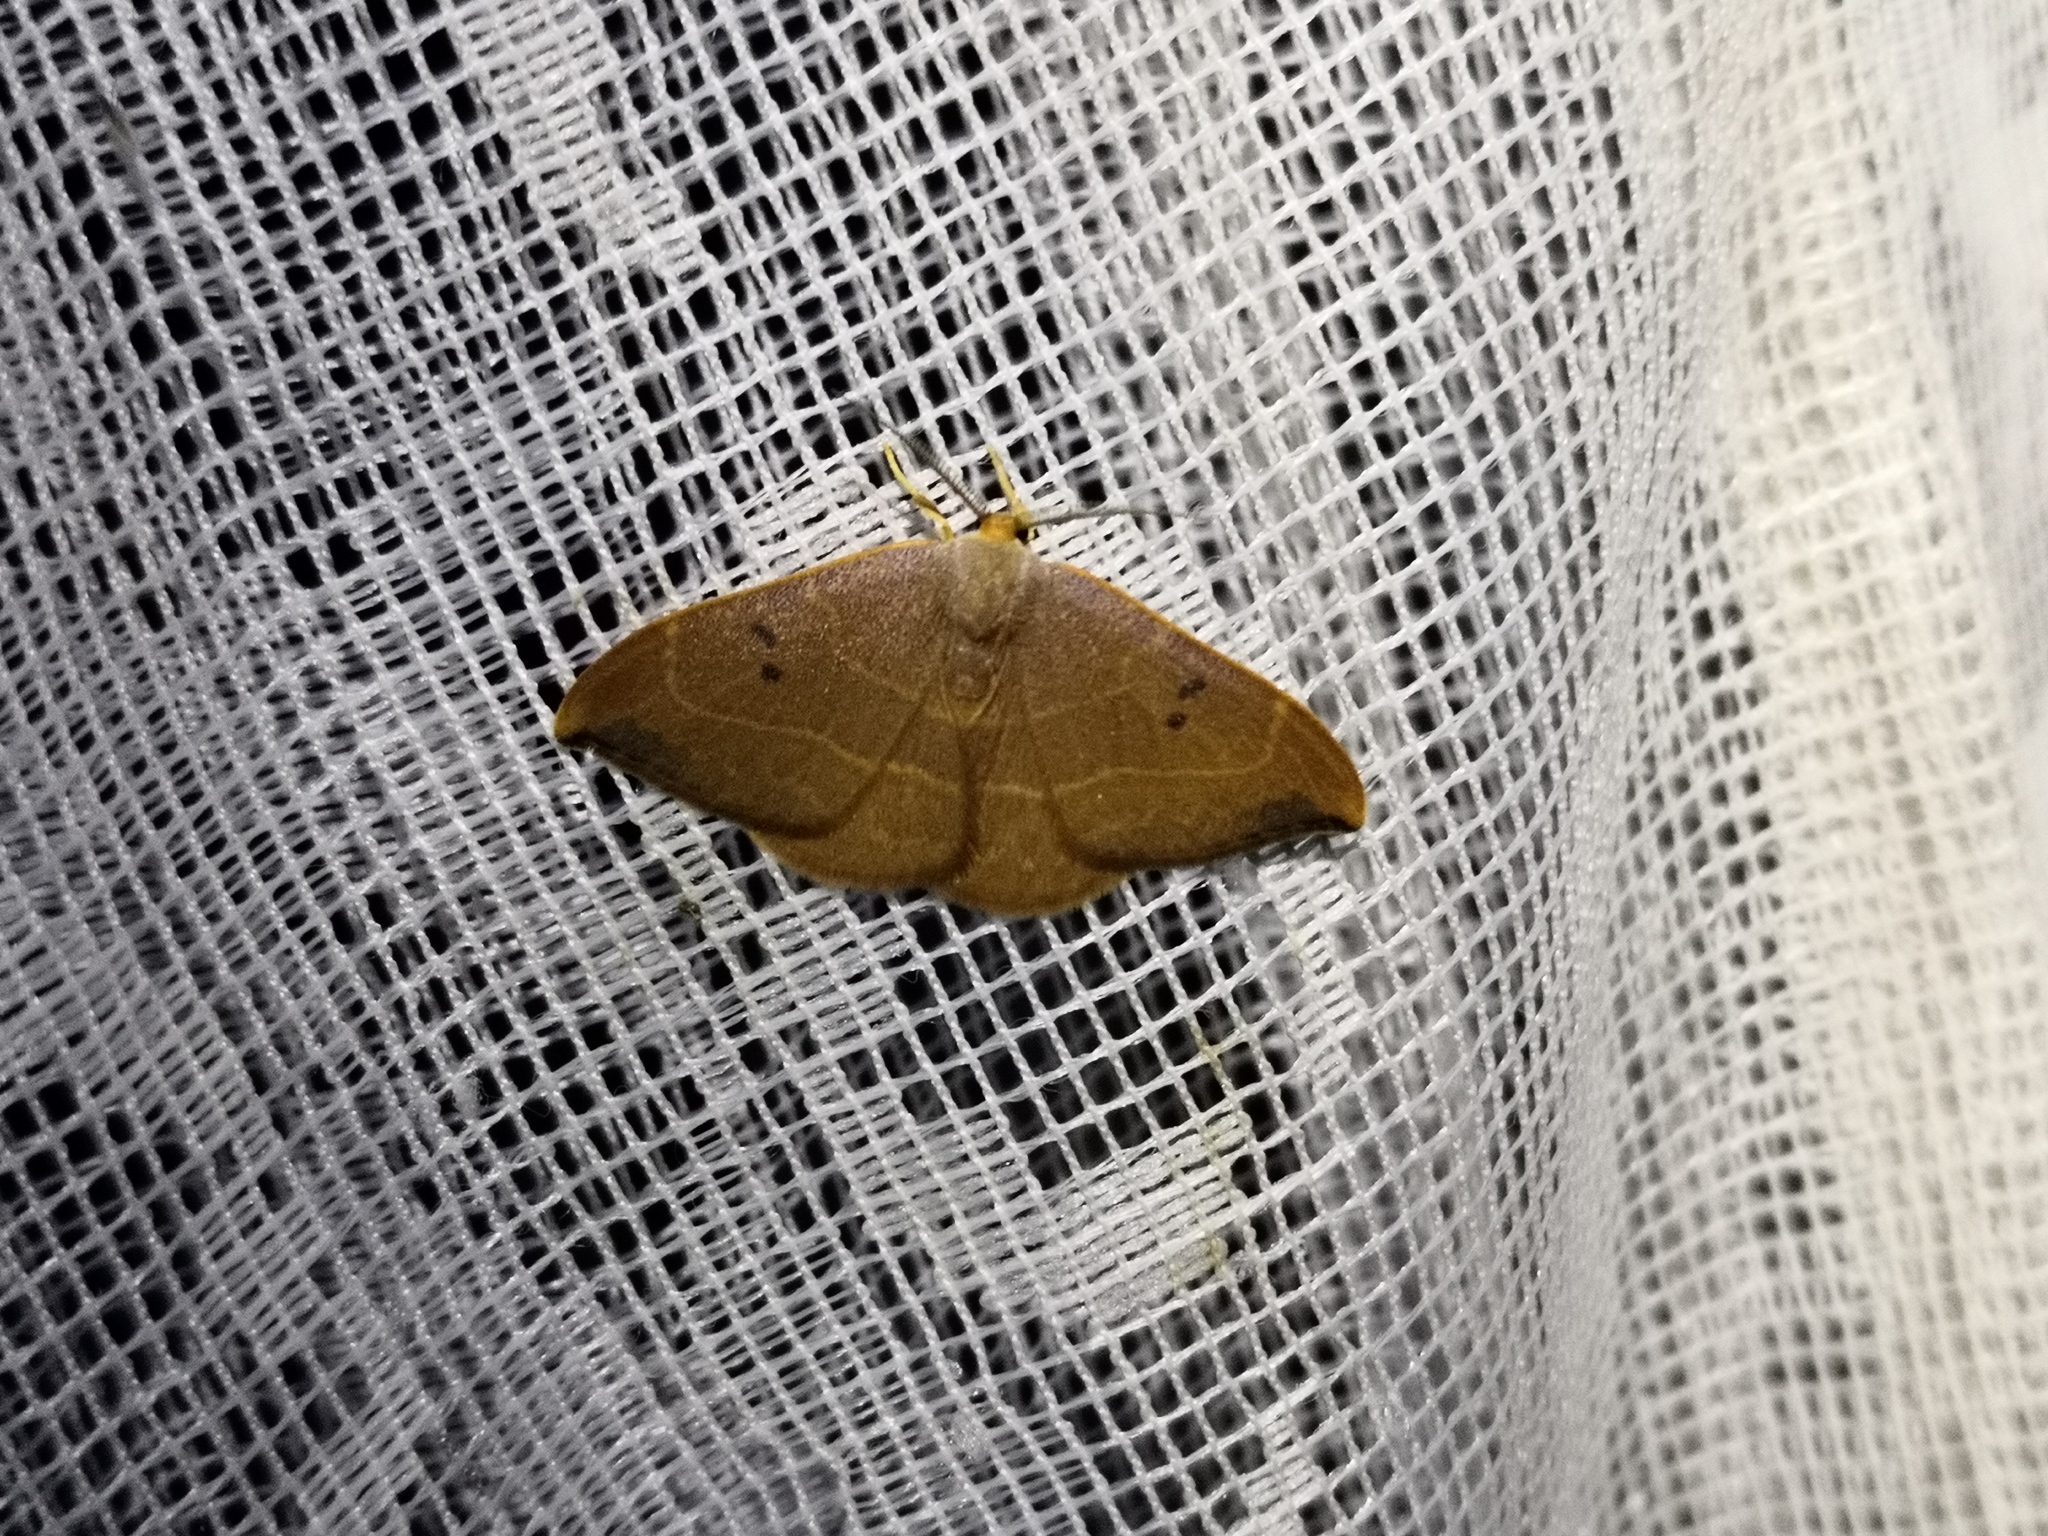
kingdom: Animalia
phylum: Arthropoda
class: Insecta
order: Lepidoptera
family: Drepanidae
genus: Watsonalla
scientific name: Watsonalla binaria
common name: Oak hook-tip
